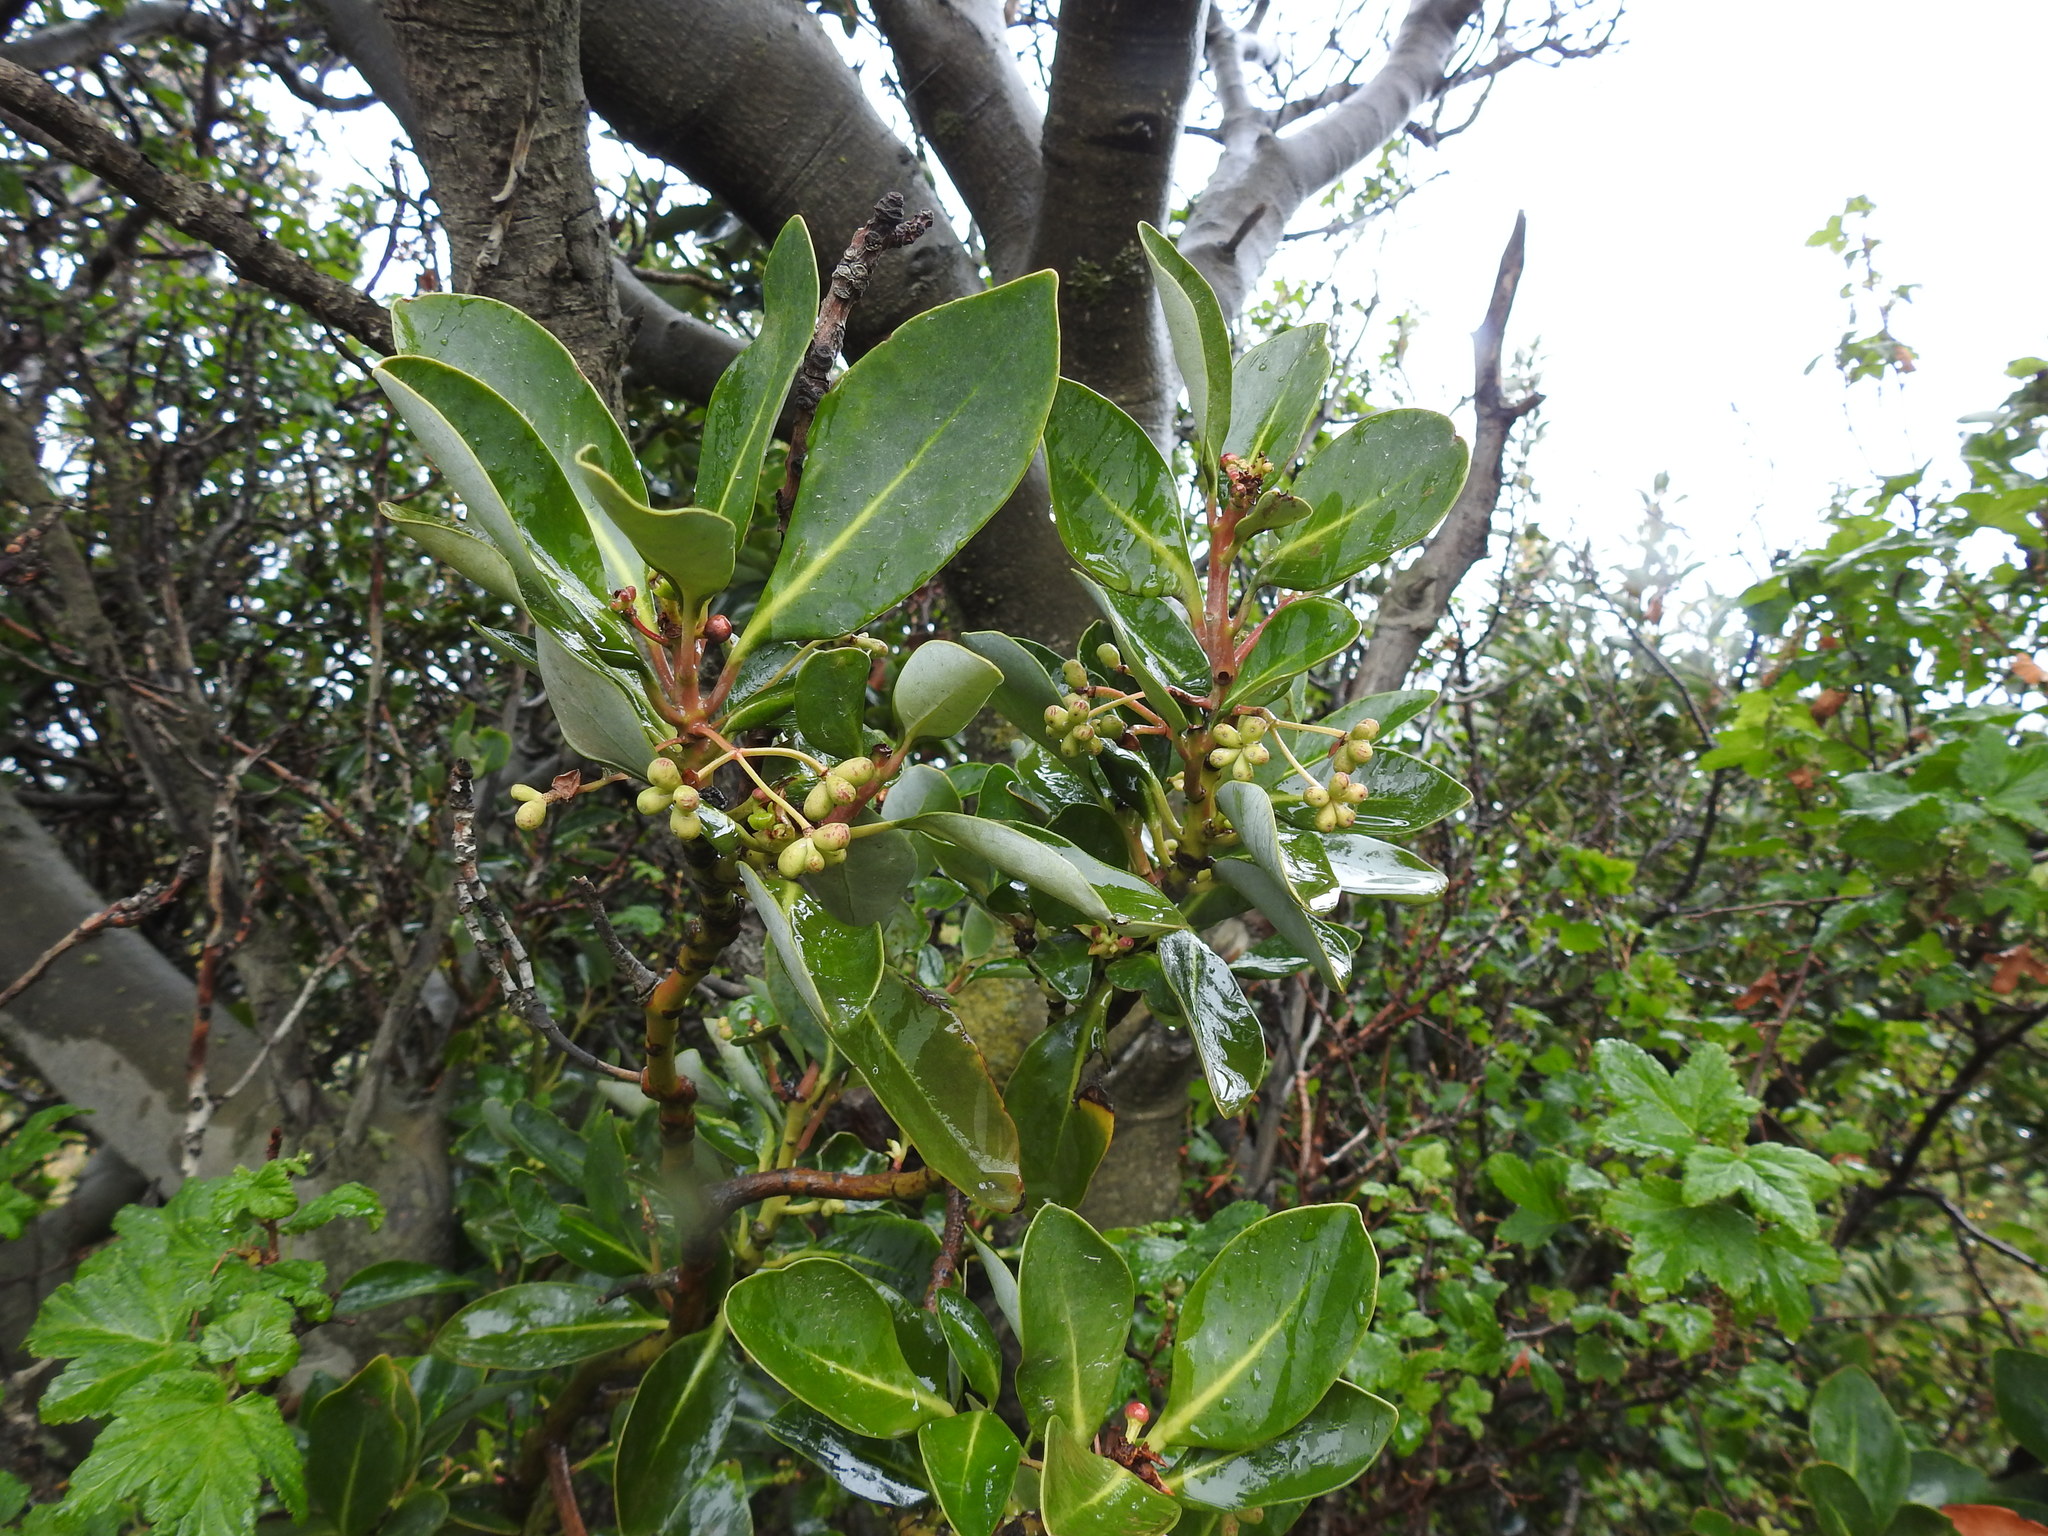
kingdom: Plantae
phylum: Tracheophyta
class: Magnoliopsida
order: Canellales
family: Winteraceae
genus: Drimys
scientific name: Drimys winteri
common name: Winter's-bark
